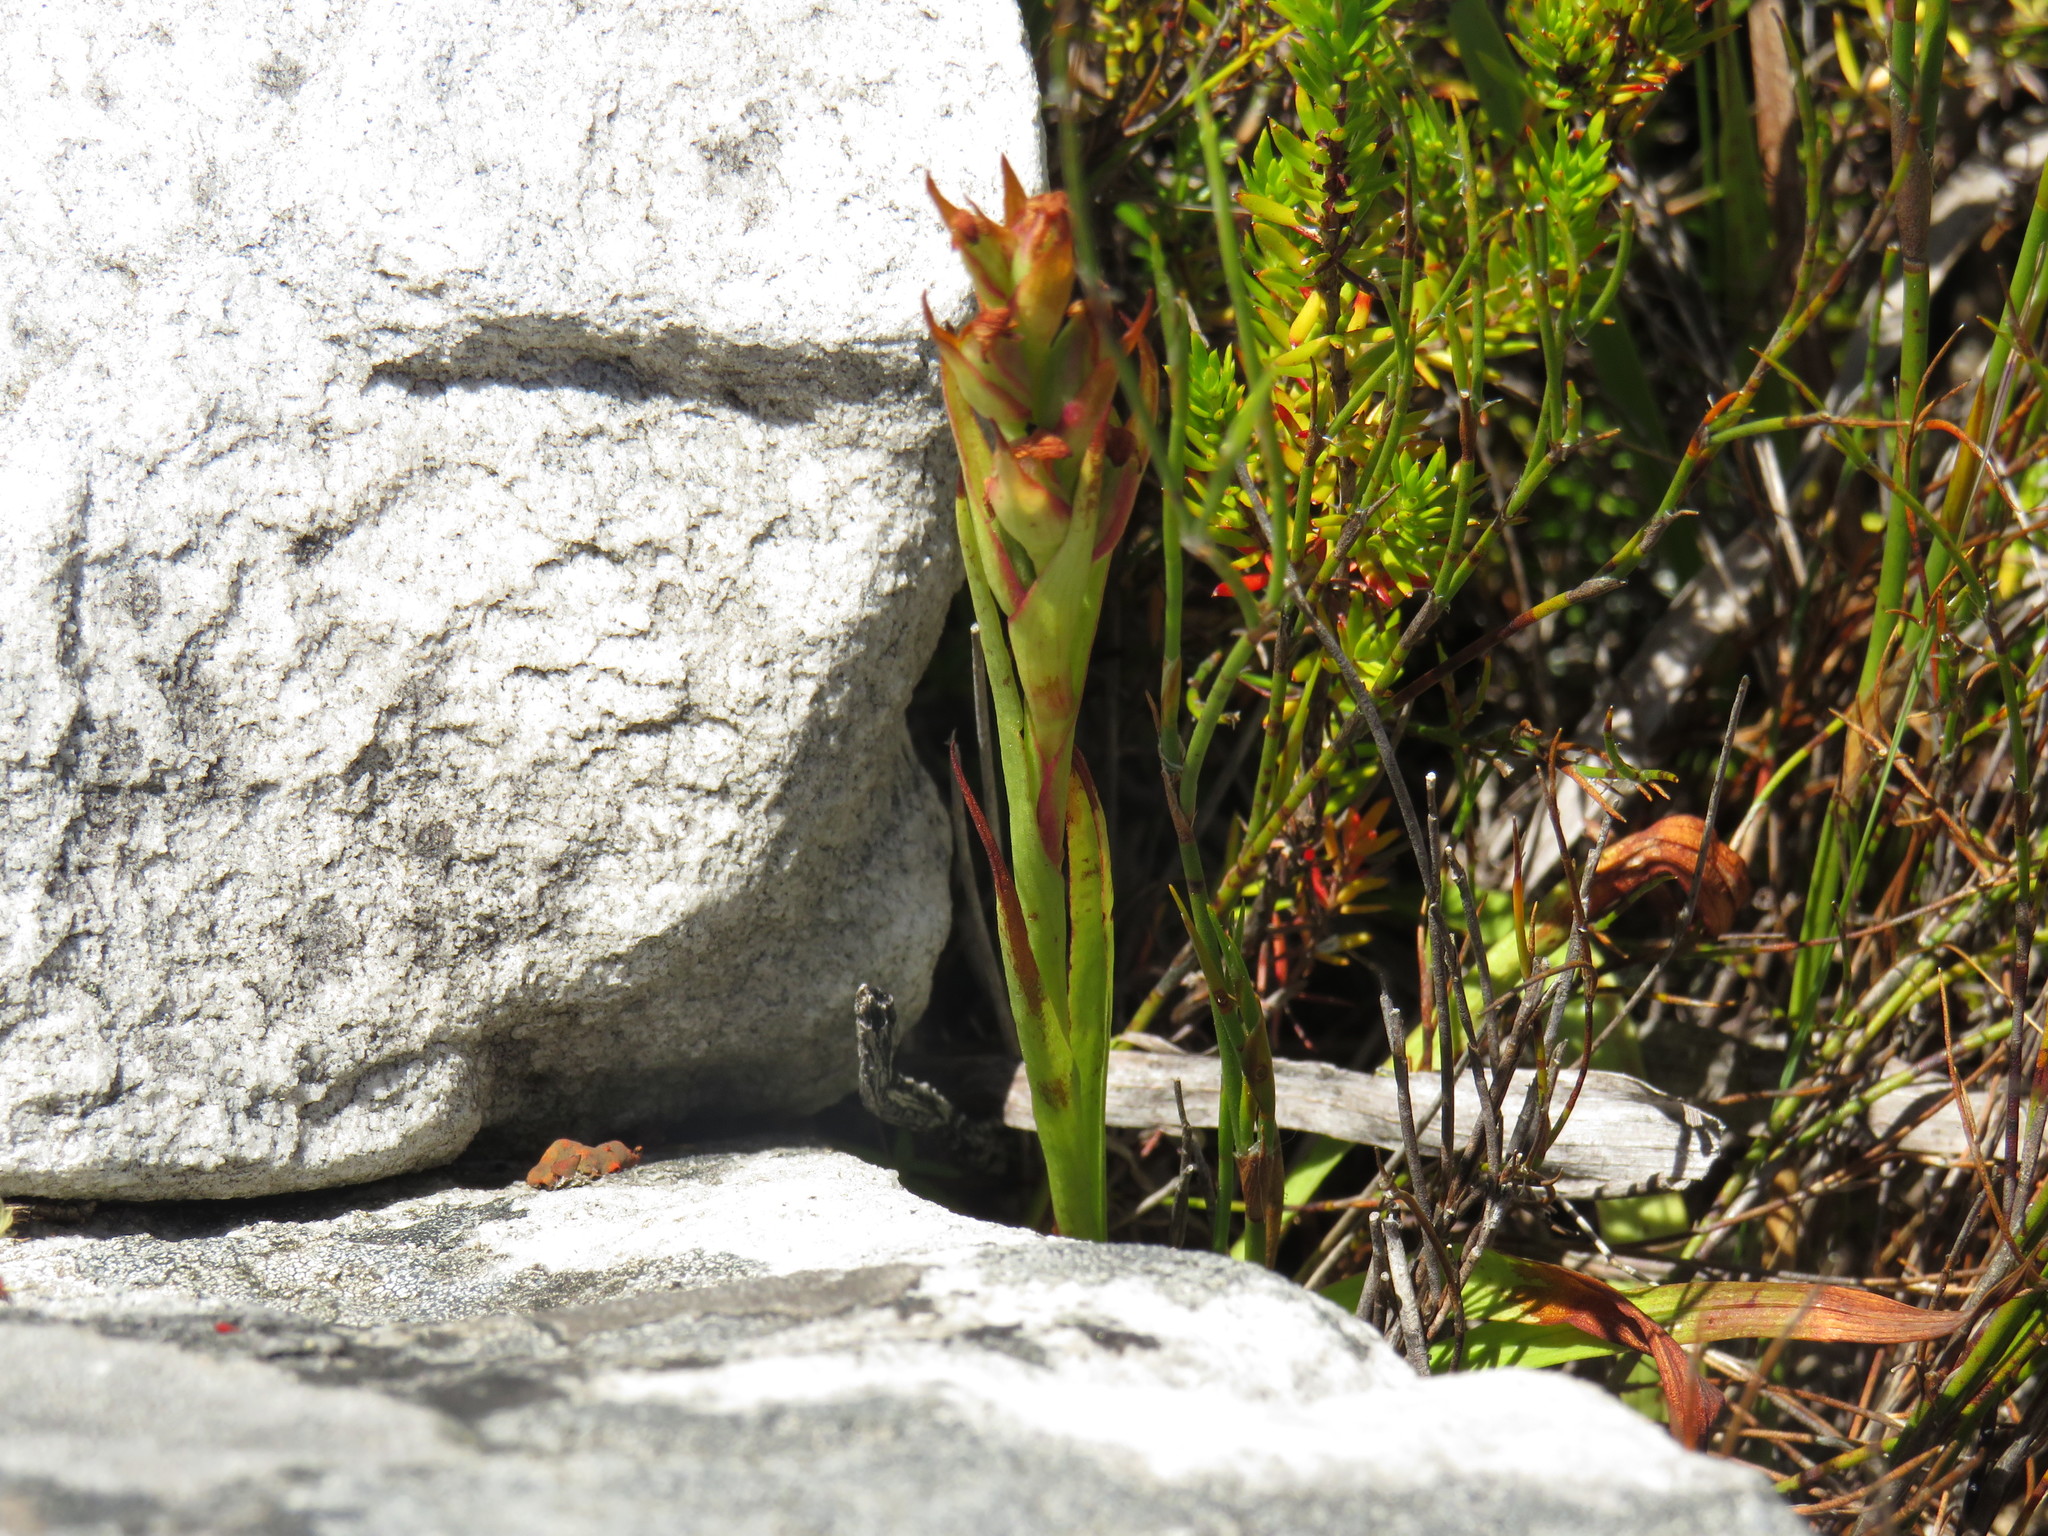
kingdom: Plantae
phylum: Tracheophyta
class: Liliopsida
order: Asparagales
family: Orchidaceae
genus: Disa
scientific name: Disa bracteata
